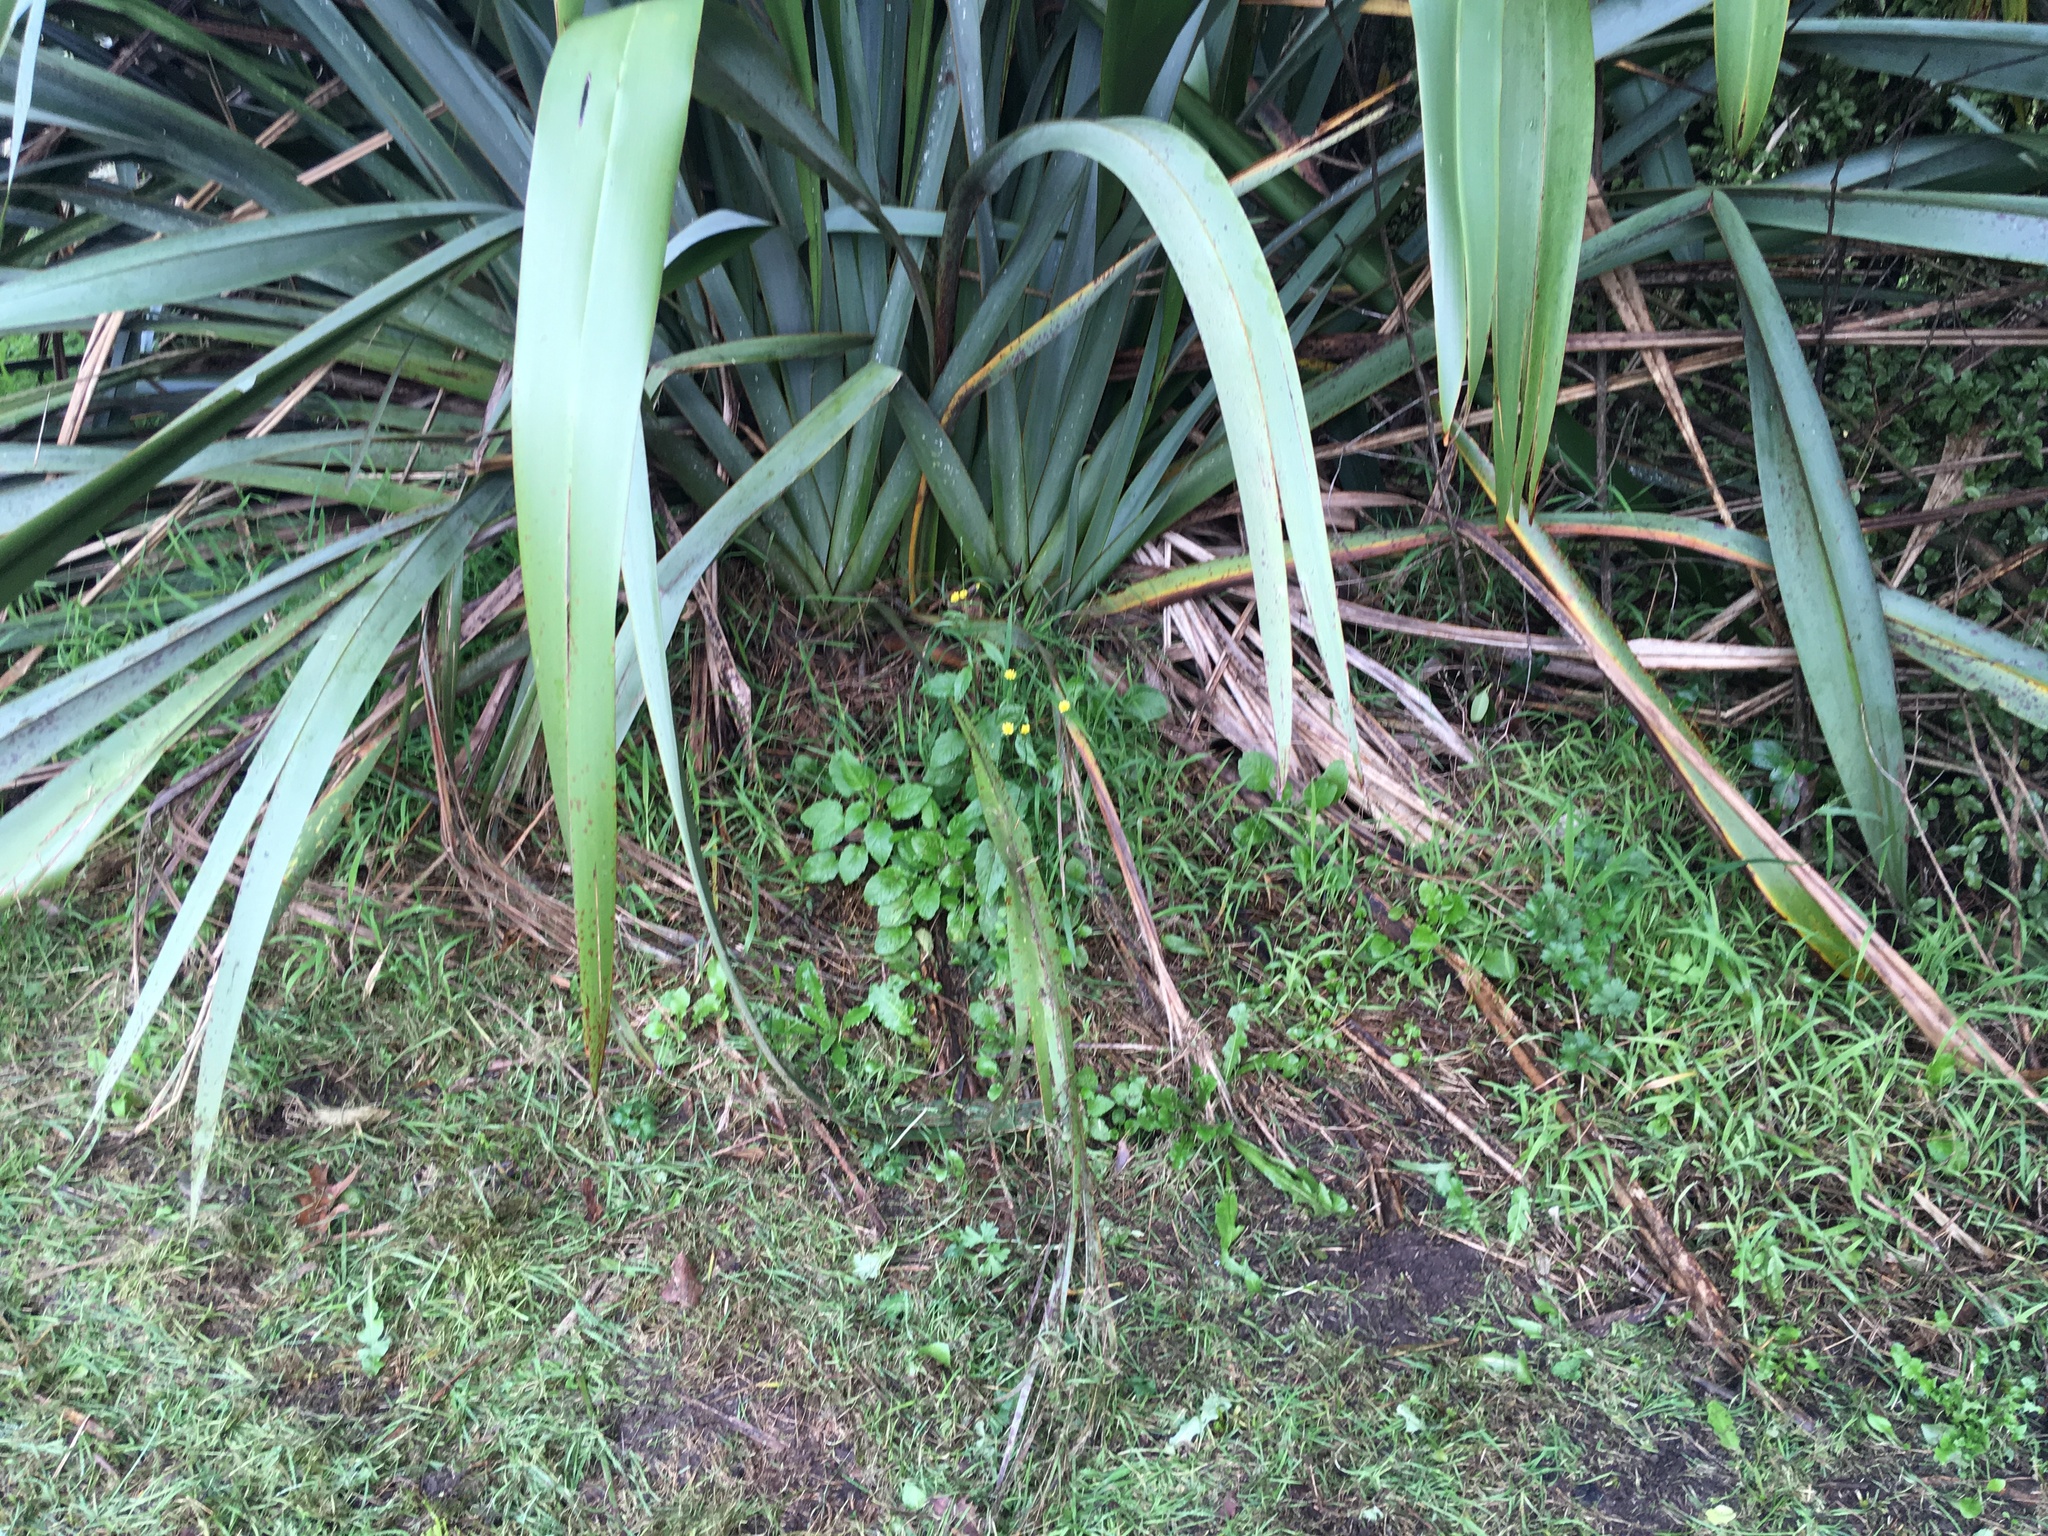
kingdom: Plantae
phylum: Tracheophyta
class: Magnoliopsida
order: Asterales
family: Asteraceae
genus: Lapsana
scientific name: Lapsana communis
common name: Nipplewort
